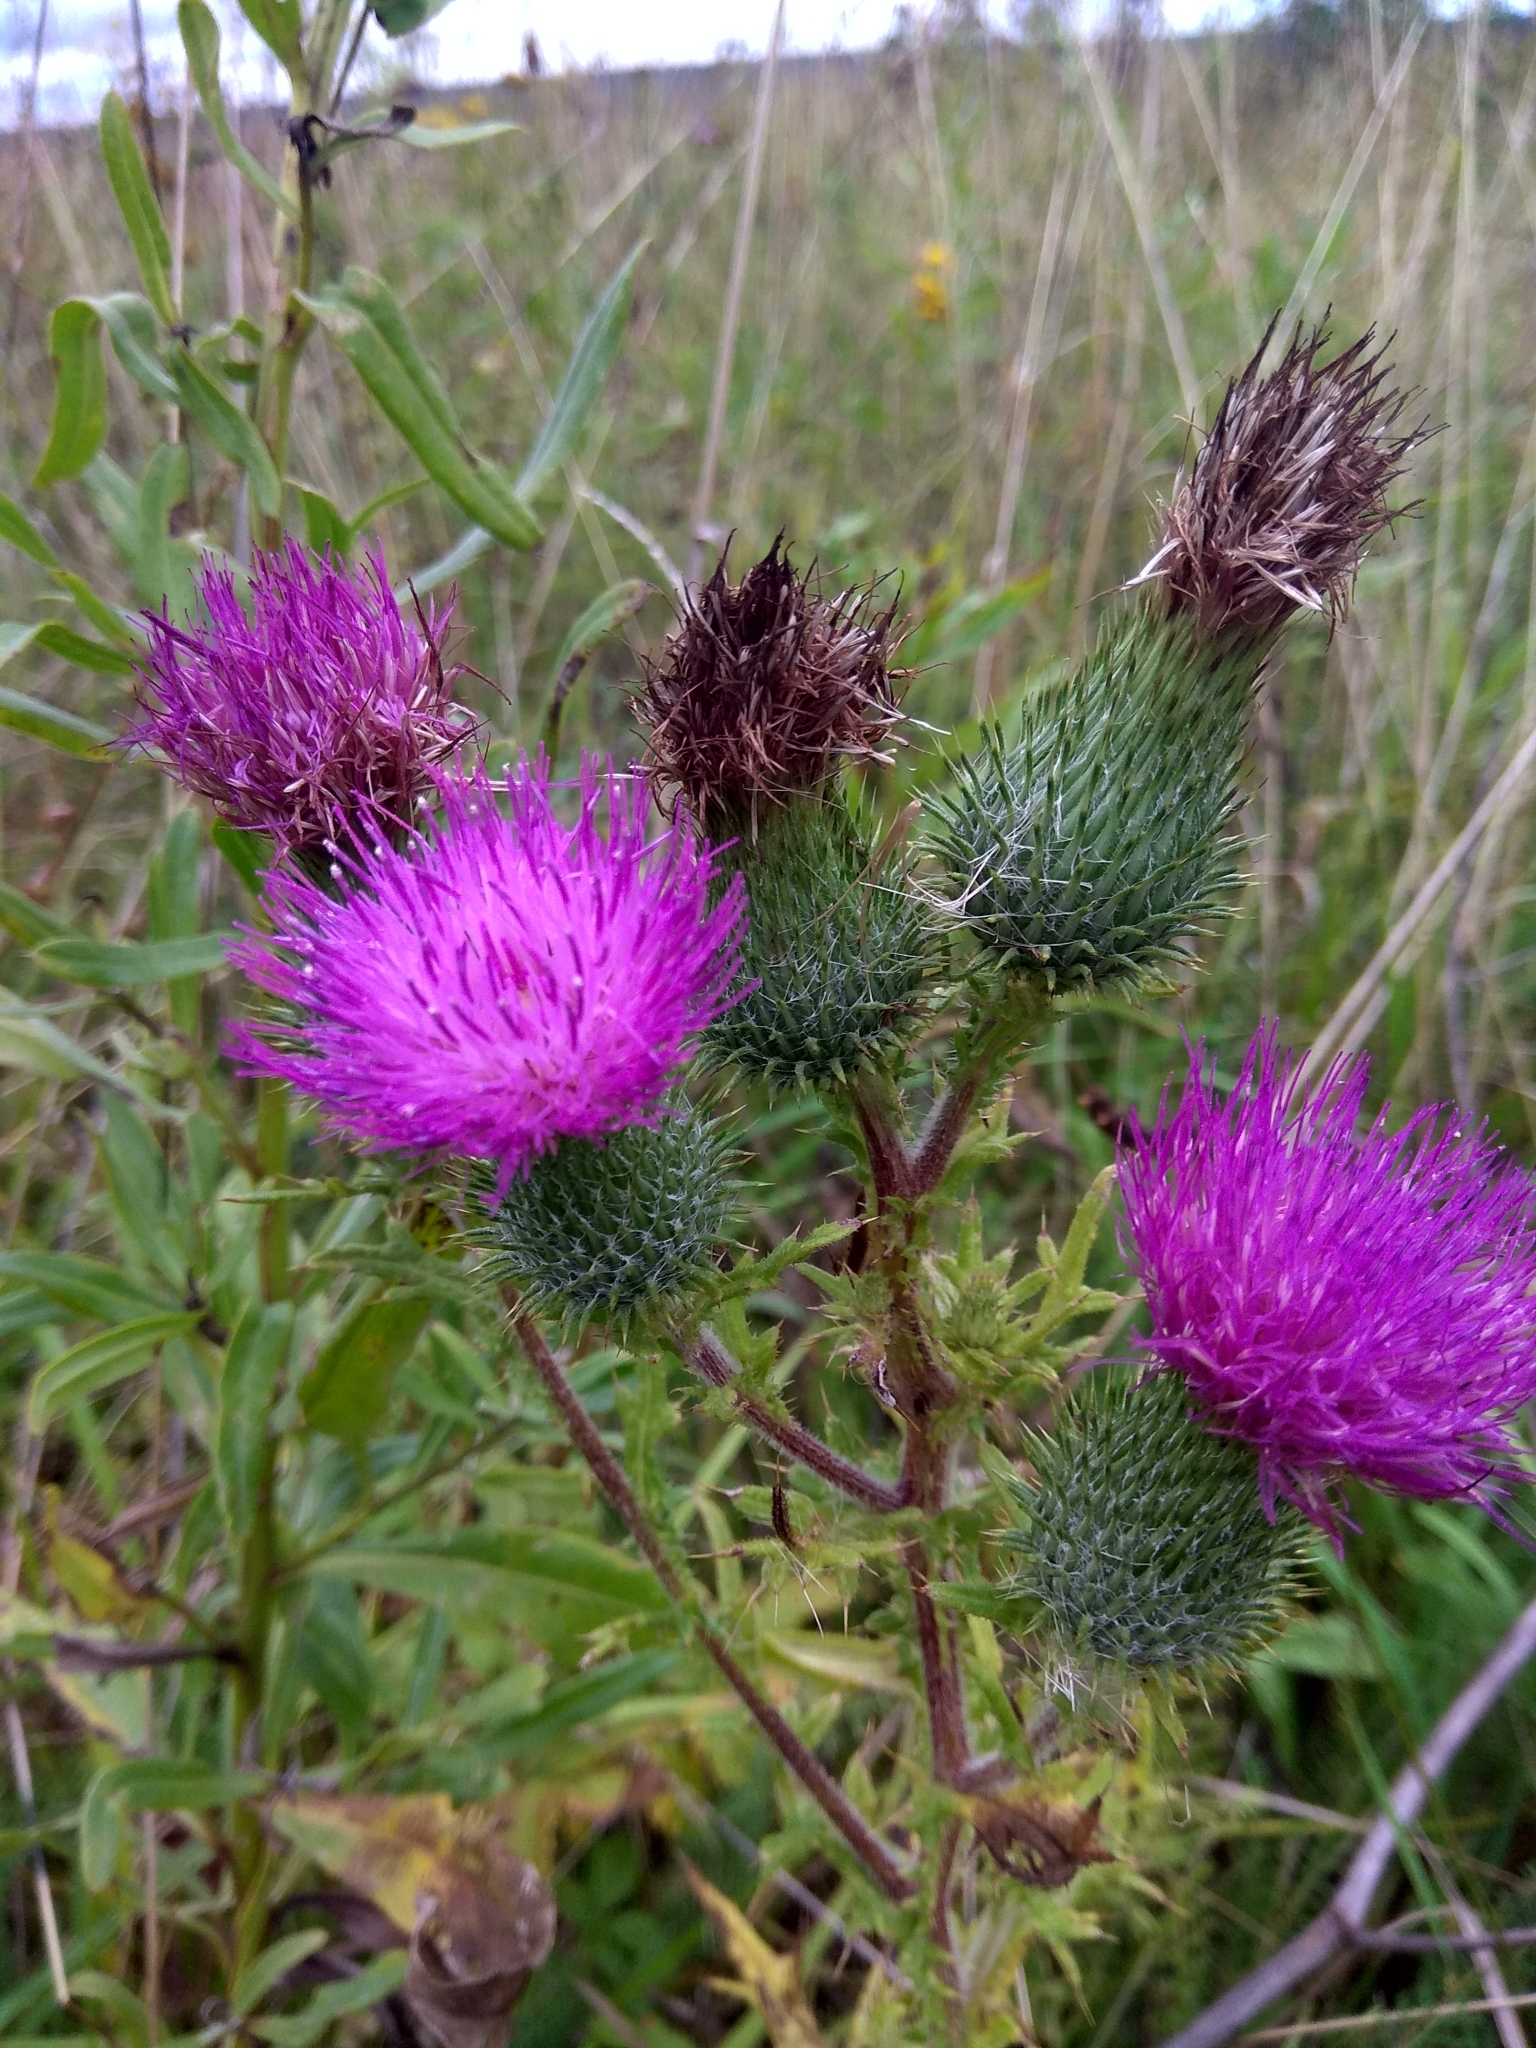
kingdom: Plantae
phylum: Tracheophyta
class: Magnoliopsida
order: Asterales
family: Asteraceae
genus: Cirsium
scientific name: Cirsium vulgare
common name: Bull thistle
